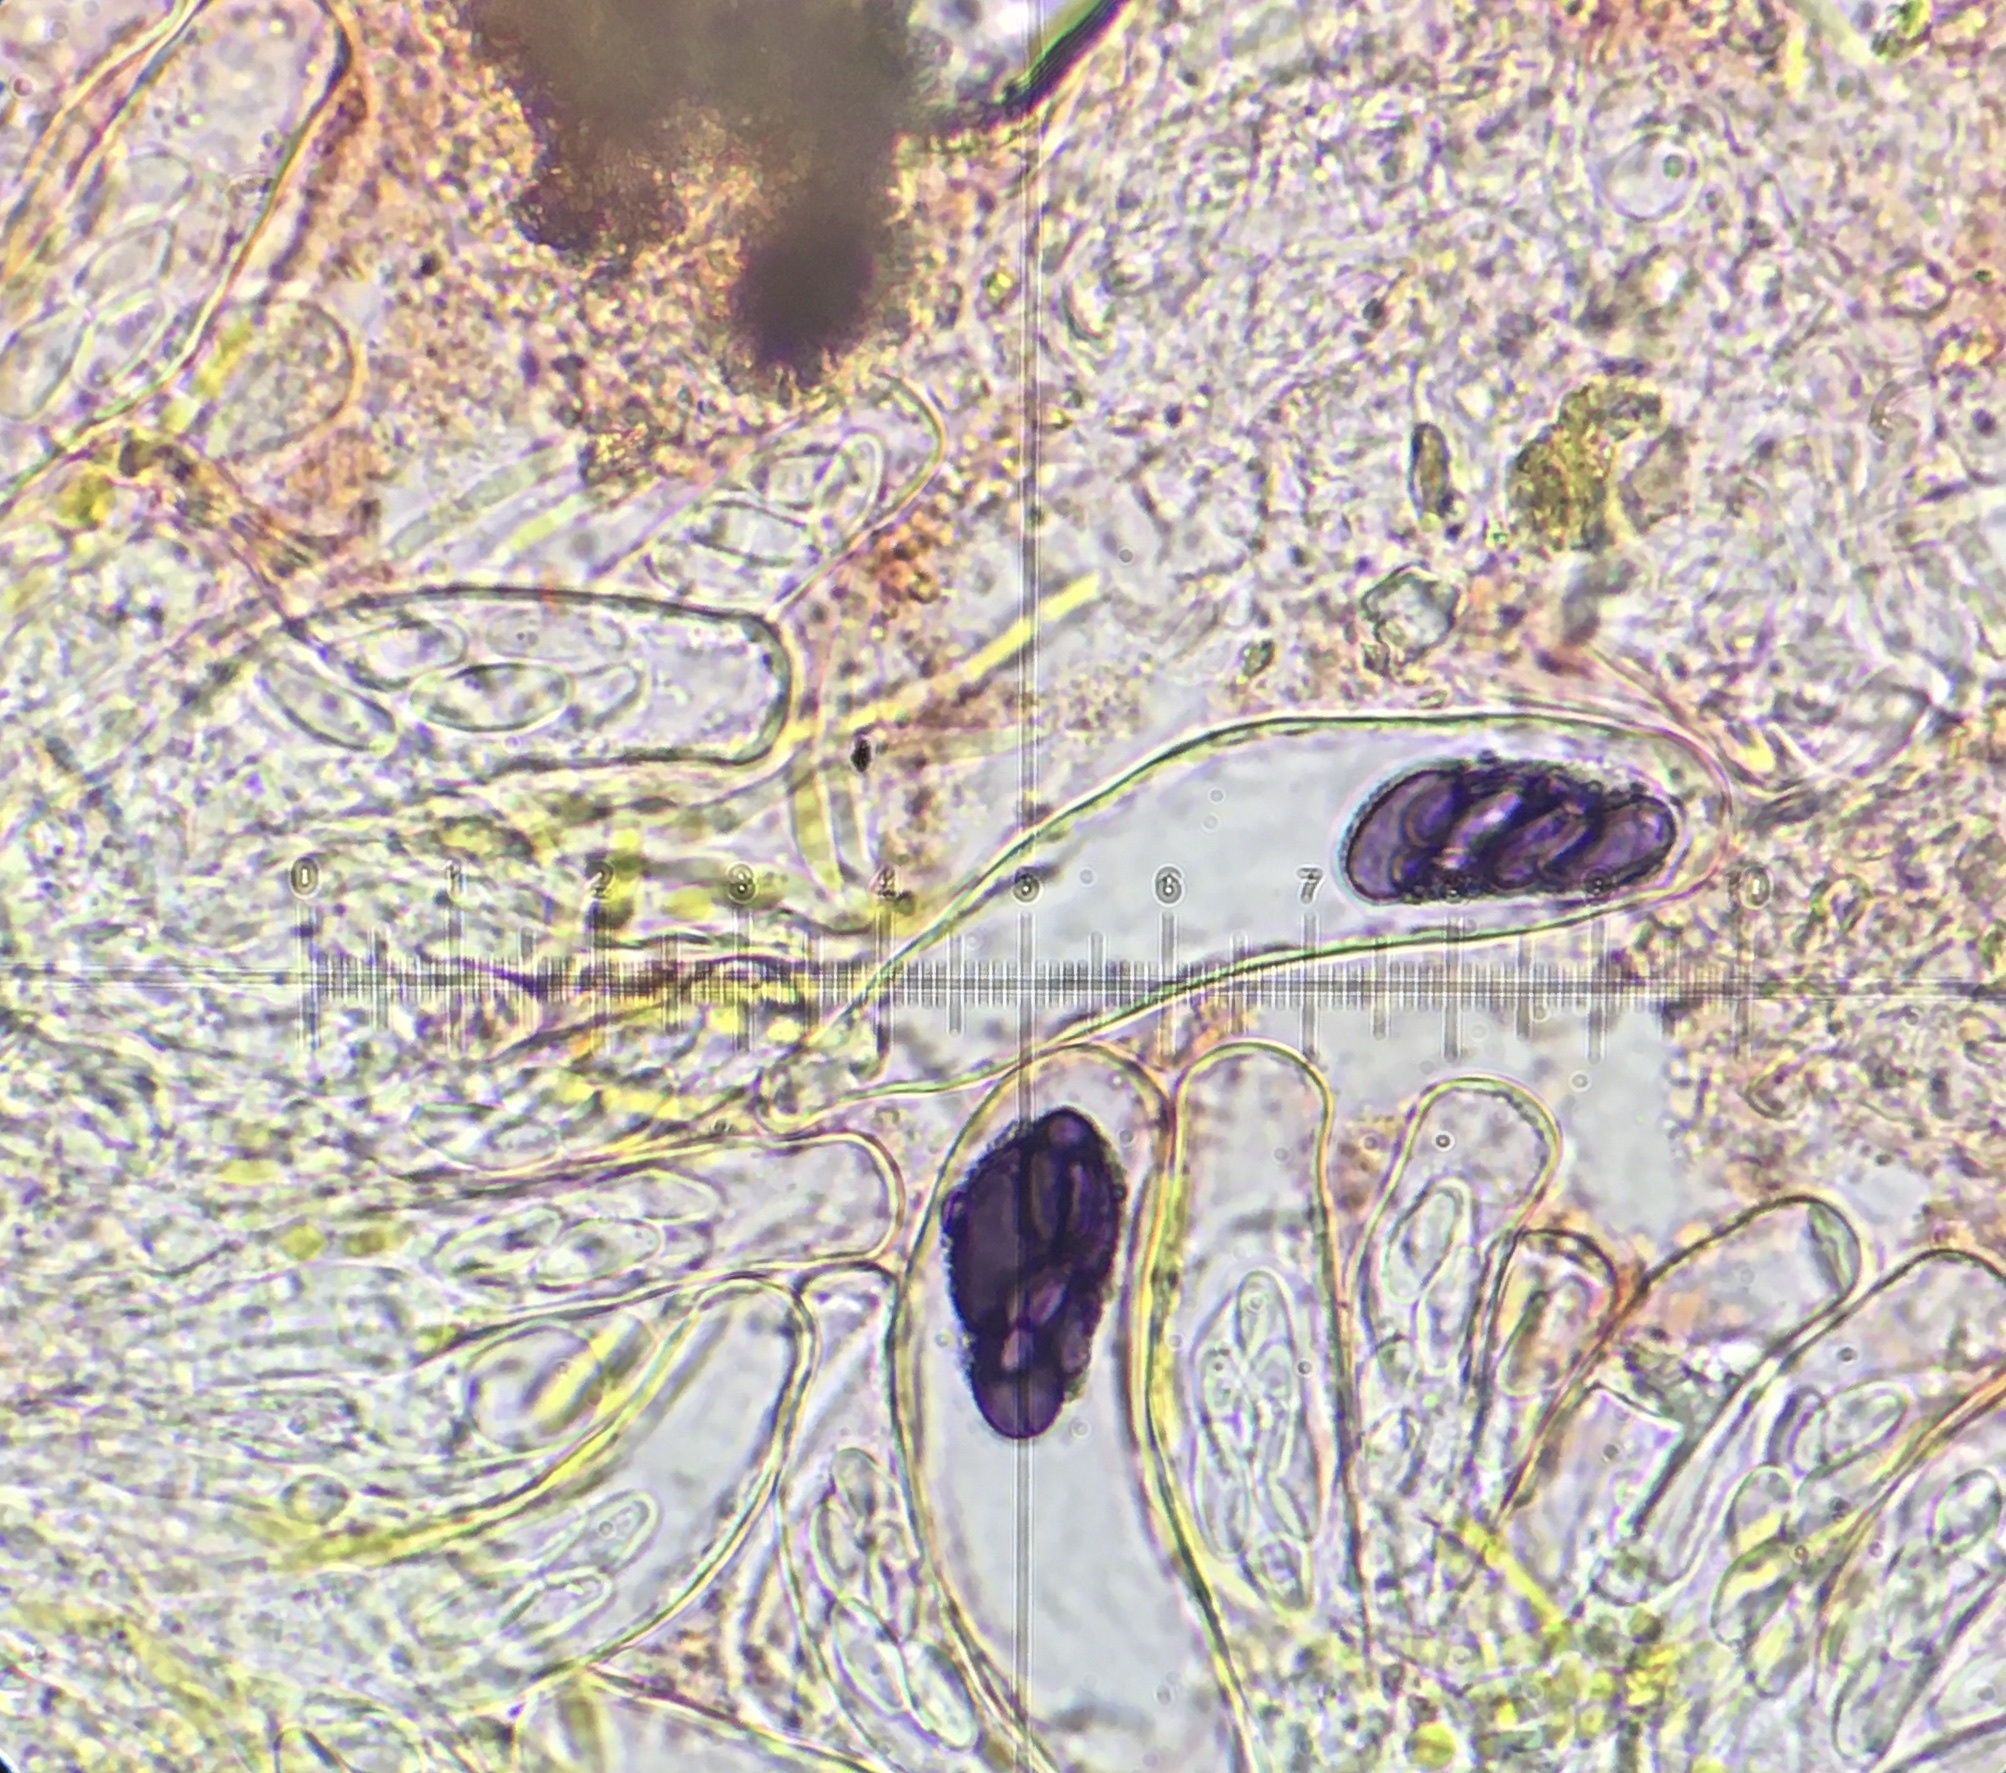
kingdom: Fungi
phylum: Ascomycota
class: Pezizomycetes
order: Pezizales
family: Ascobolaceae
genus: Saccobolus
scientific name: Saccobolus minimoides
